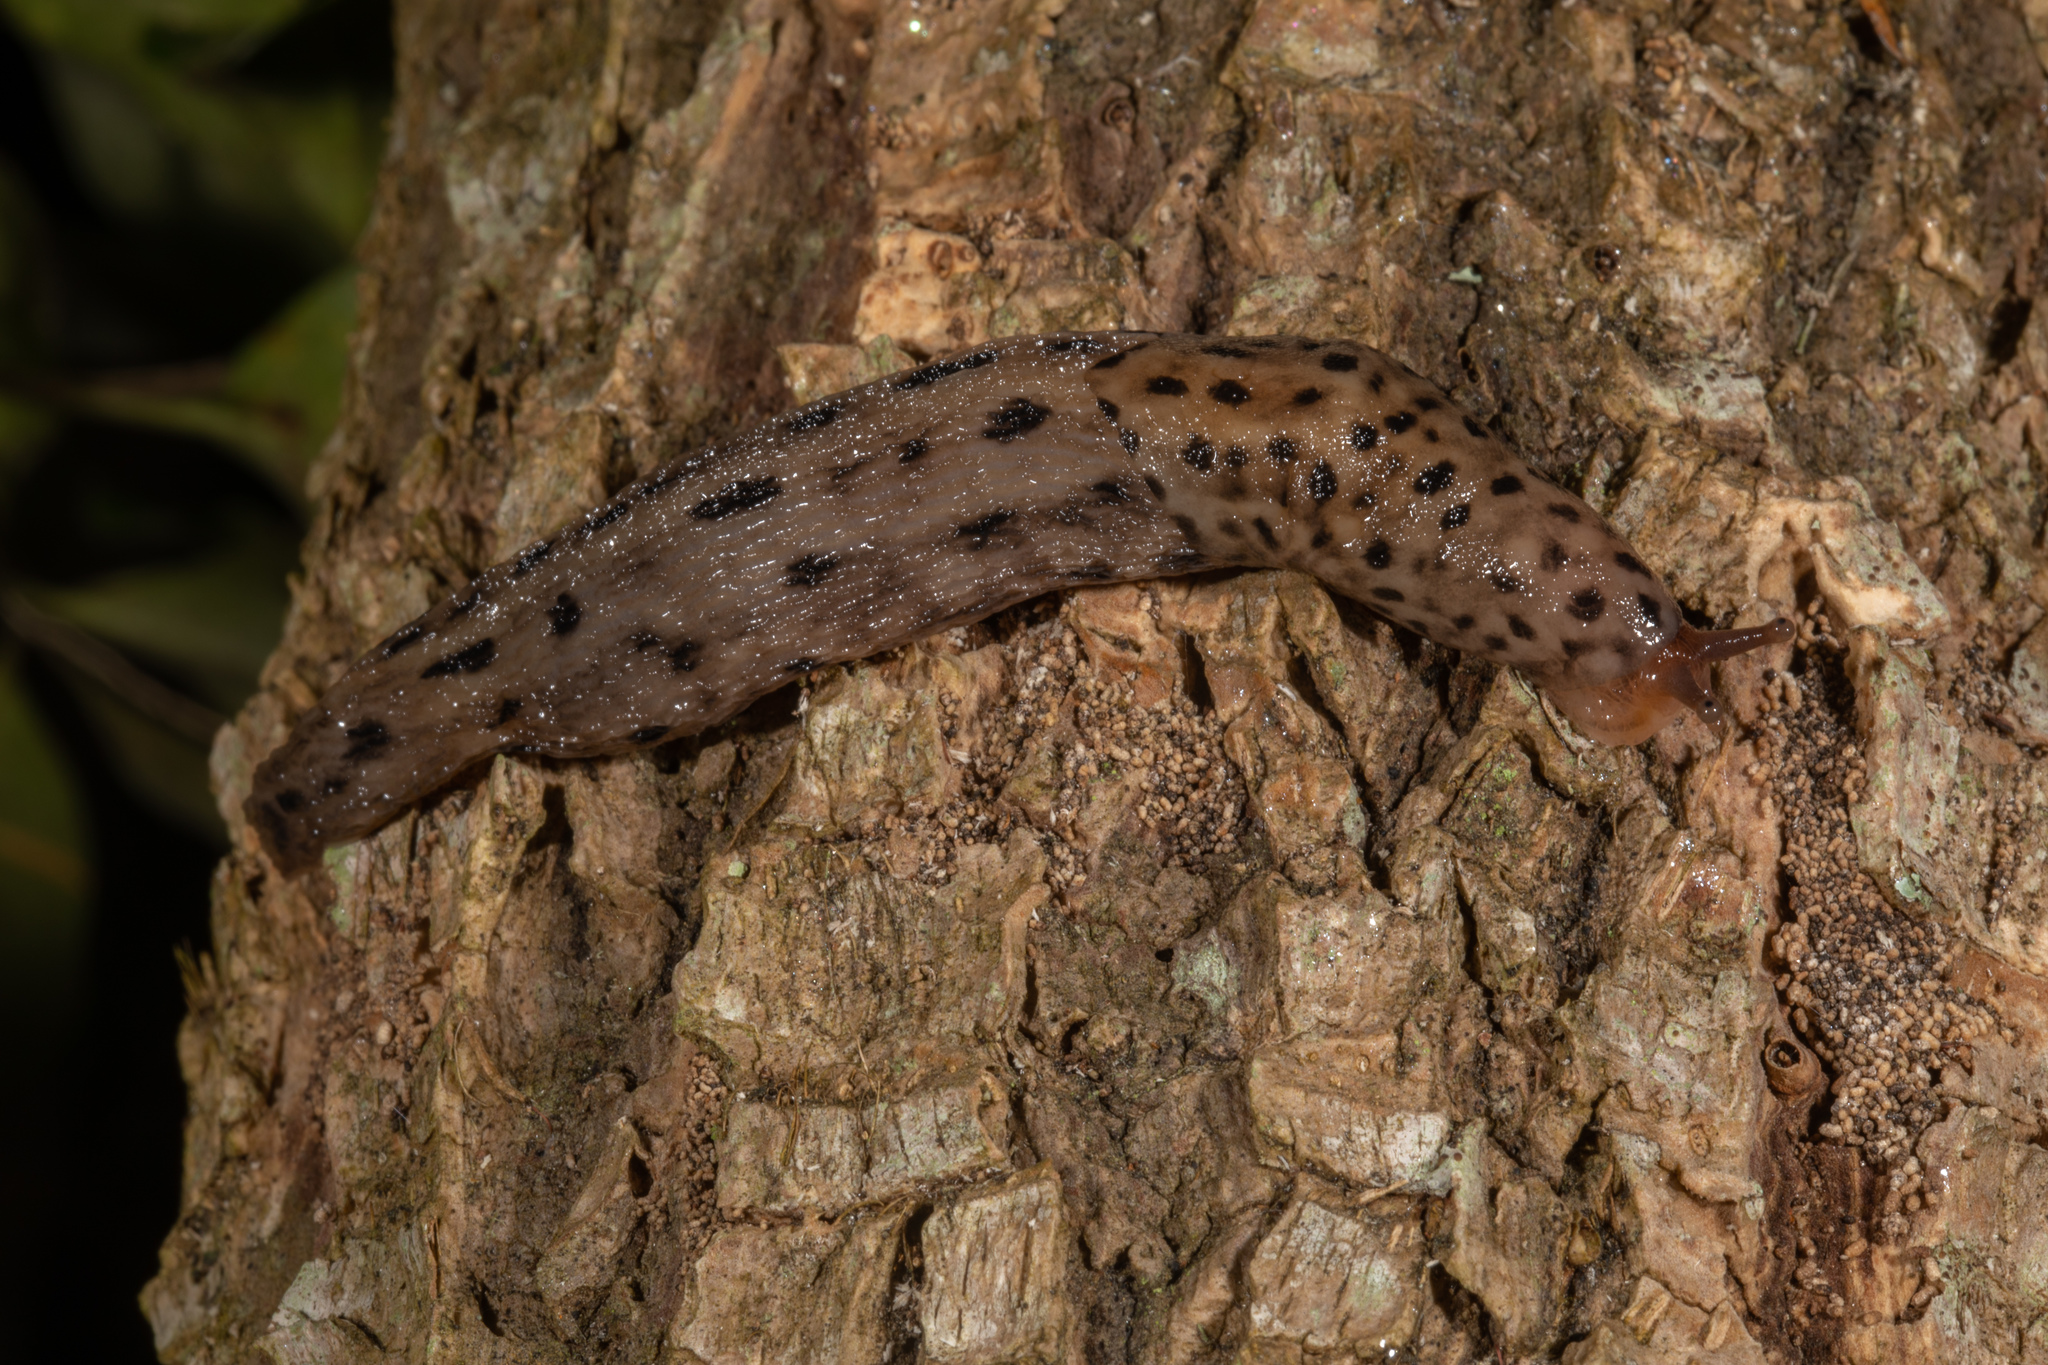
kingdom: Animalia
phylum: Mollusca
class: Gastropoda
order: Stylommatophora
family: Limacidae
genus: Limax
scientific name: Limax maximus
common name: Great grey slug
